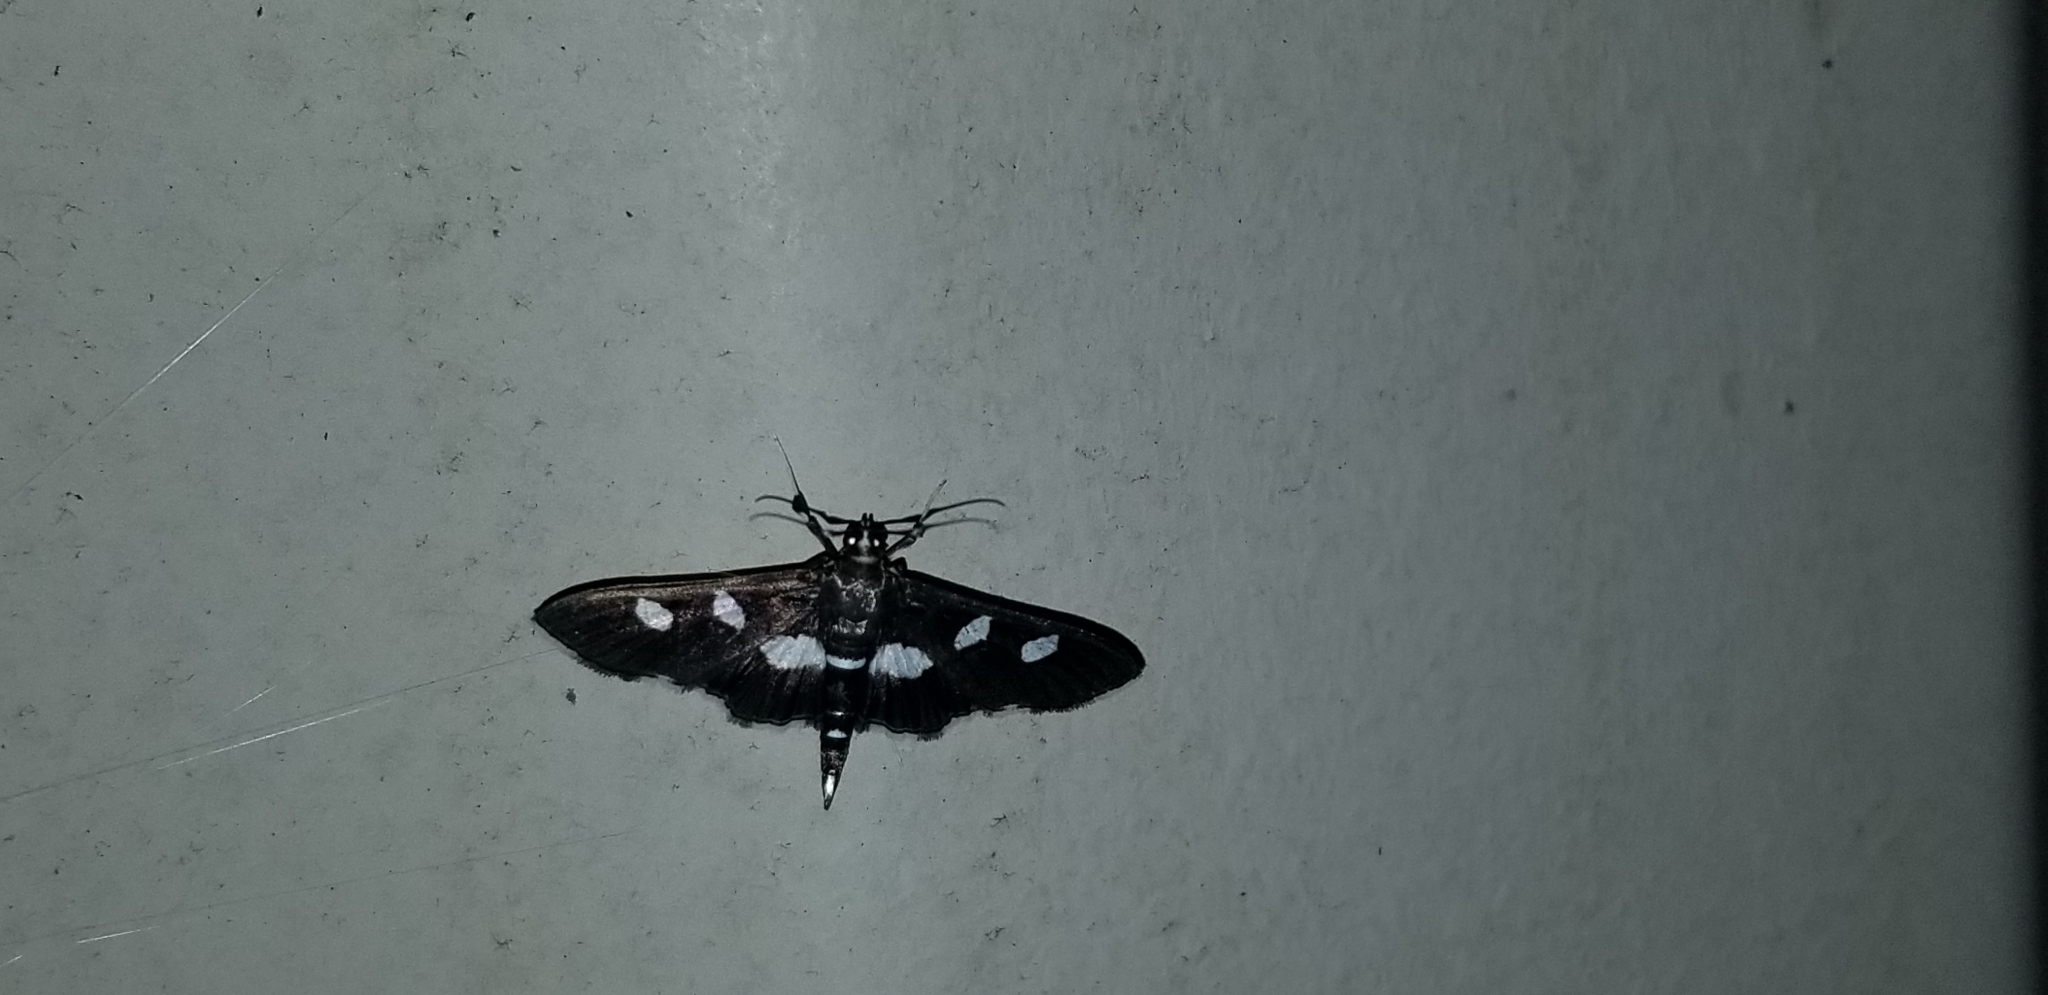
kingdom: Animalia
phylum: Arthropoda
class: Insecta
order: Lepidoptera
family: Crambidae
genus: Desmia
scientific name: Desmia
